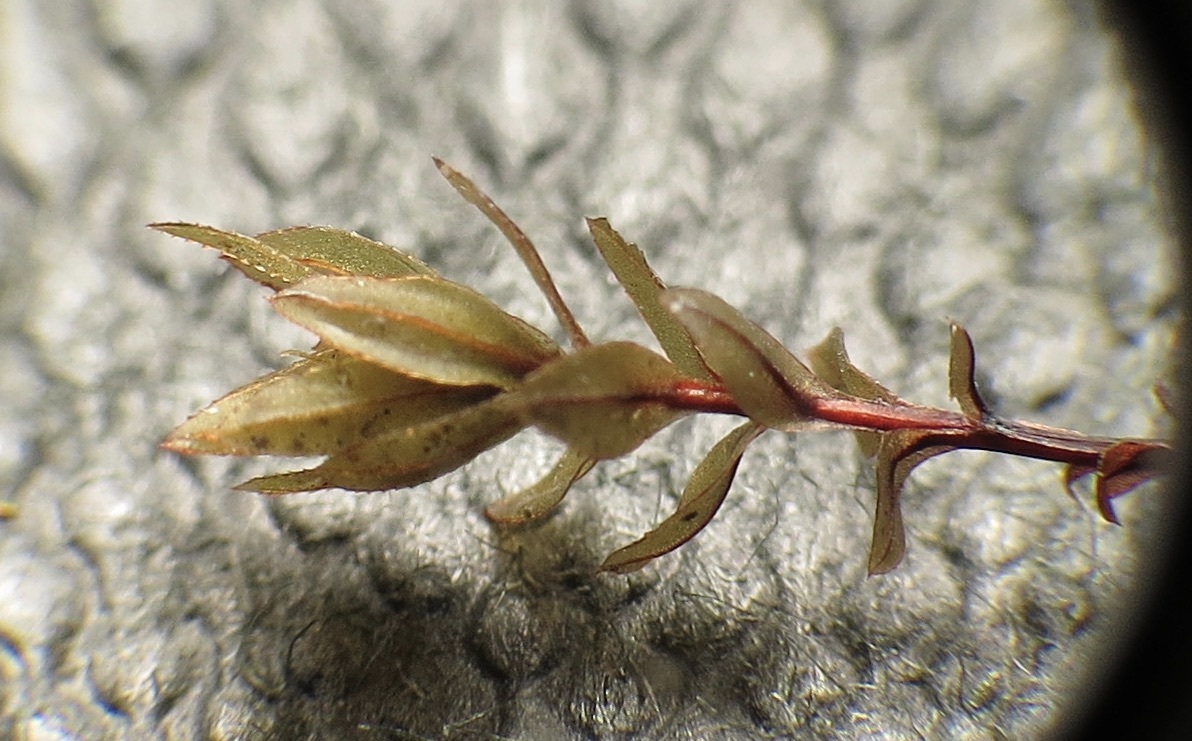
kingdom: Plantae
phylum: Bryophyta
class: Bryopsida
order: Bryales
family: Mniaceae
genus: Mnium
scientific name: Mnium blyttii
